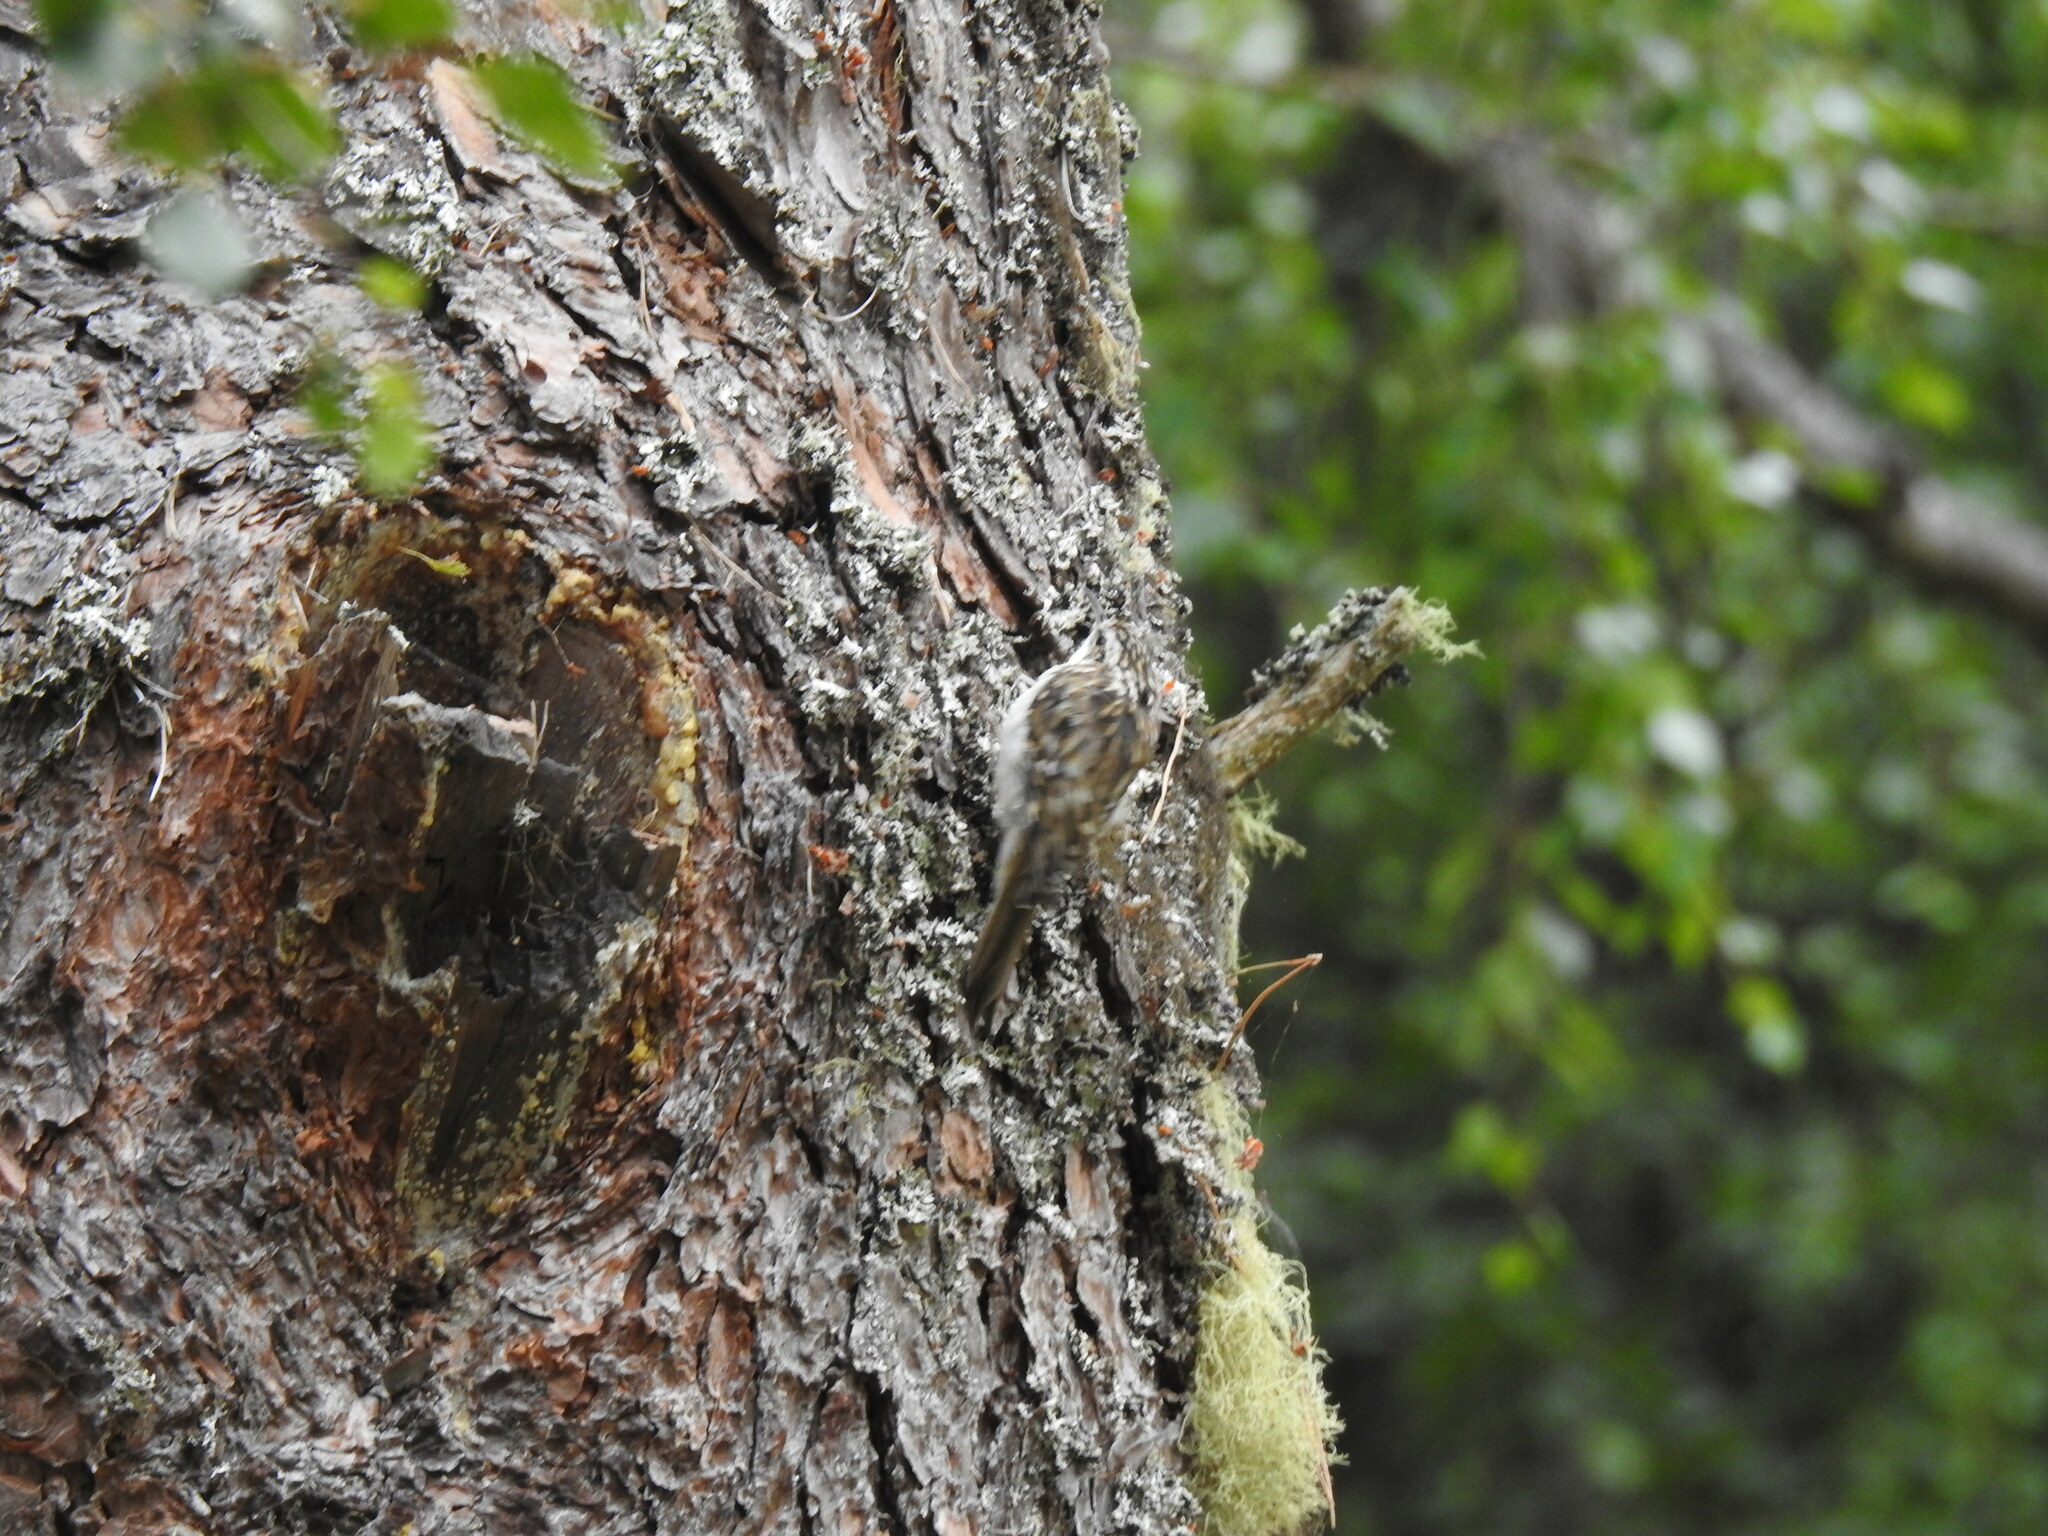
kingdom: Animalia
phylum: Chordata
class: Aves
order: Passeriformes
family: Certhiidae
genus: Certhia
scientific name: Certhia familiaris
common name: Eurasian treecreeper
